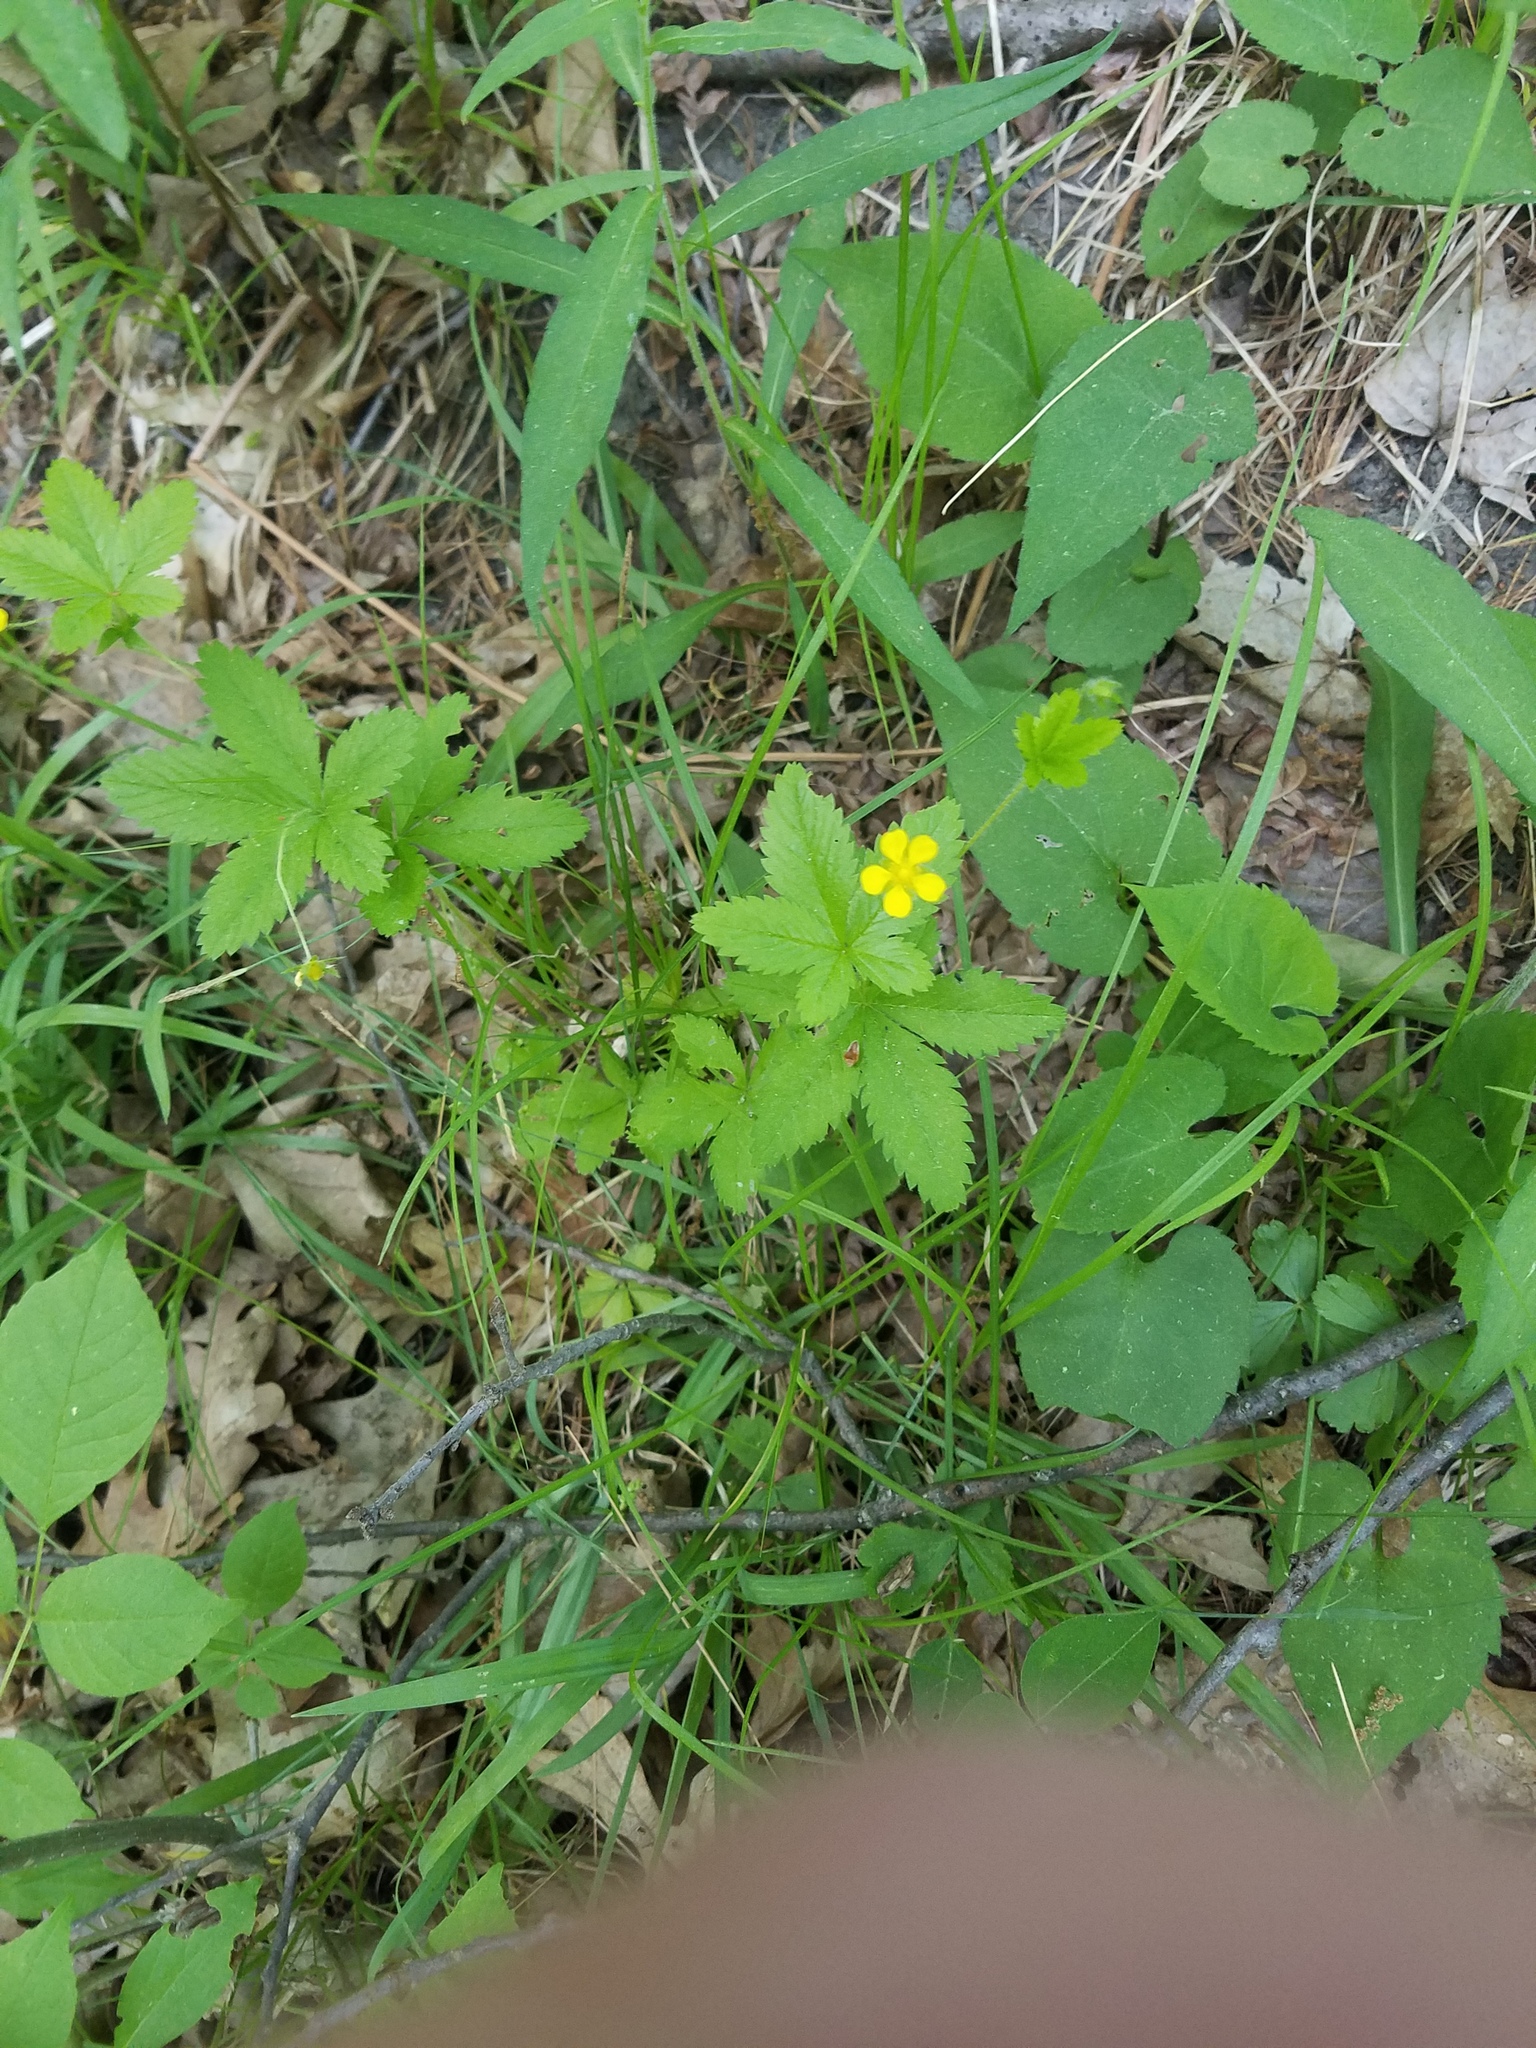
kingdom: Plantae
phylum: Tracheophyta
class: Magnoliopsida
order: Rosales
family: Rosaceae
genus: Potentilla
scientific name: Potentilla canadensis
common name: Canada cinquefoil
